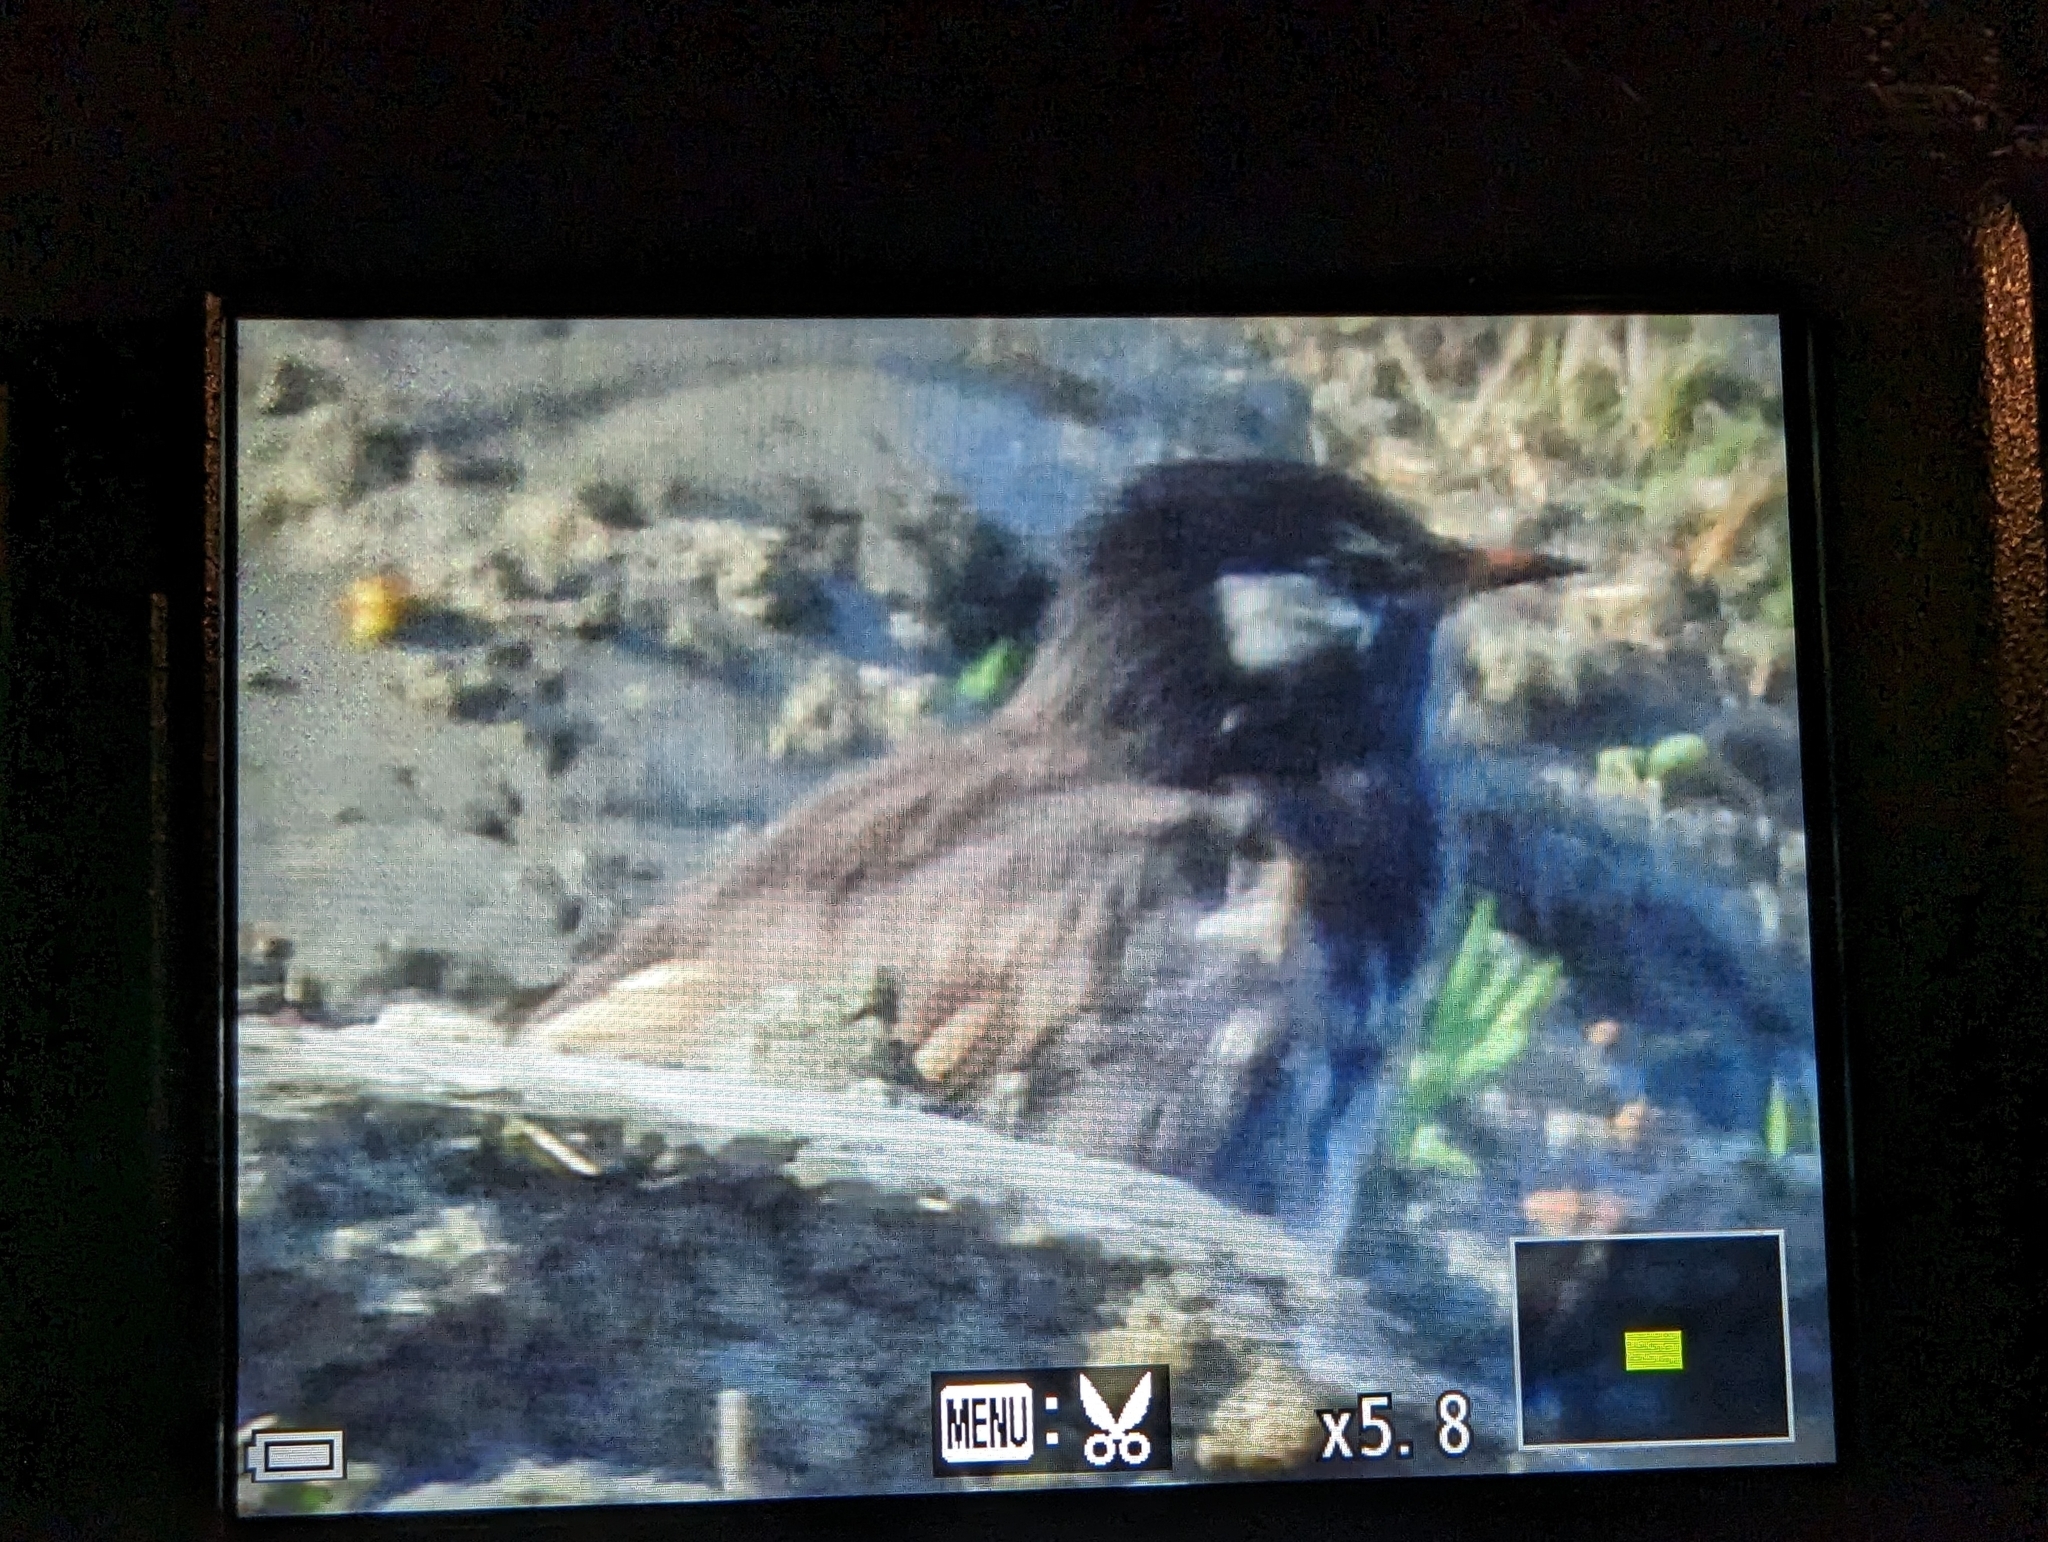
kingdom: Animalia
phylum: Chordata
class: Aves
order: Passeriformes
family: Sturnidae
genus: Spodiopsar
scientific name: Spodiopsar cineraceus
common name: White-cheeked starling
